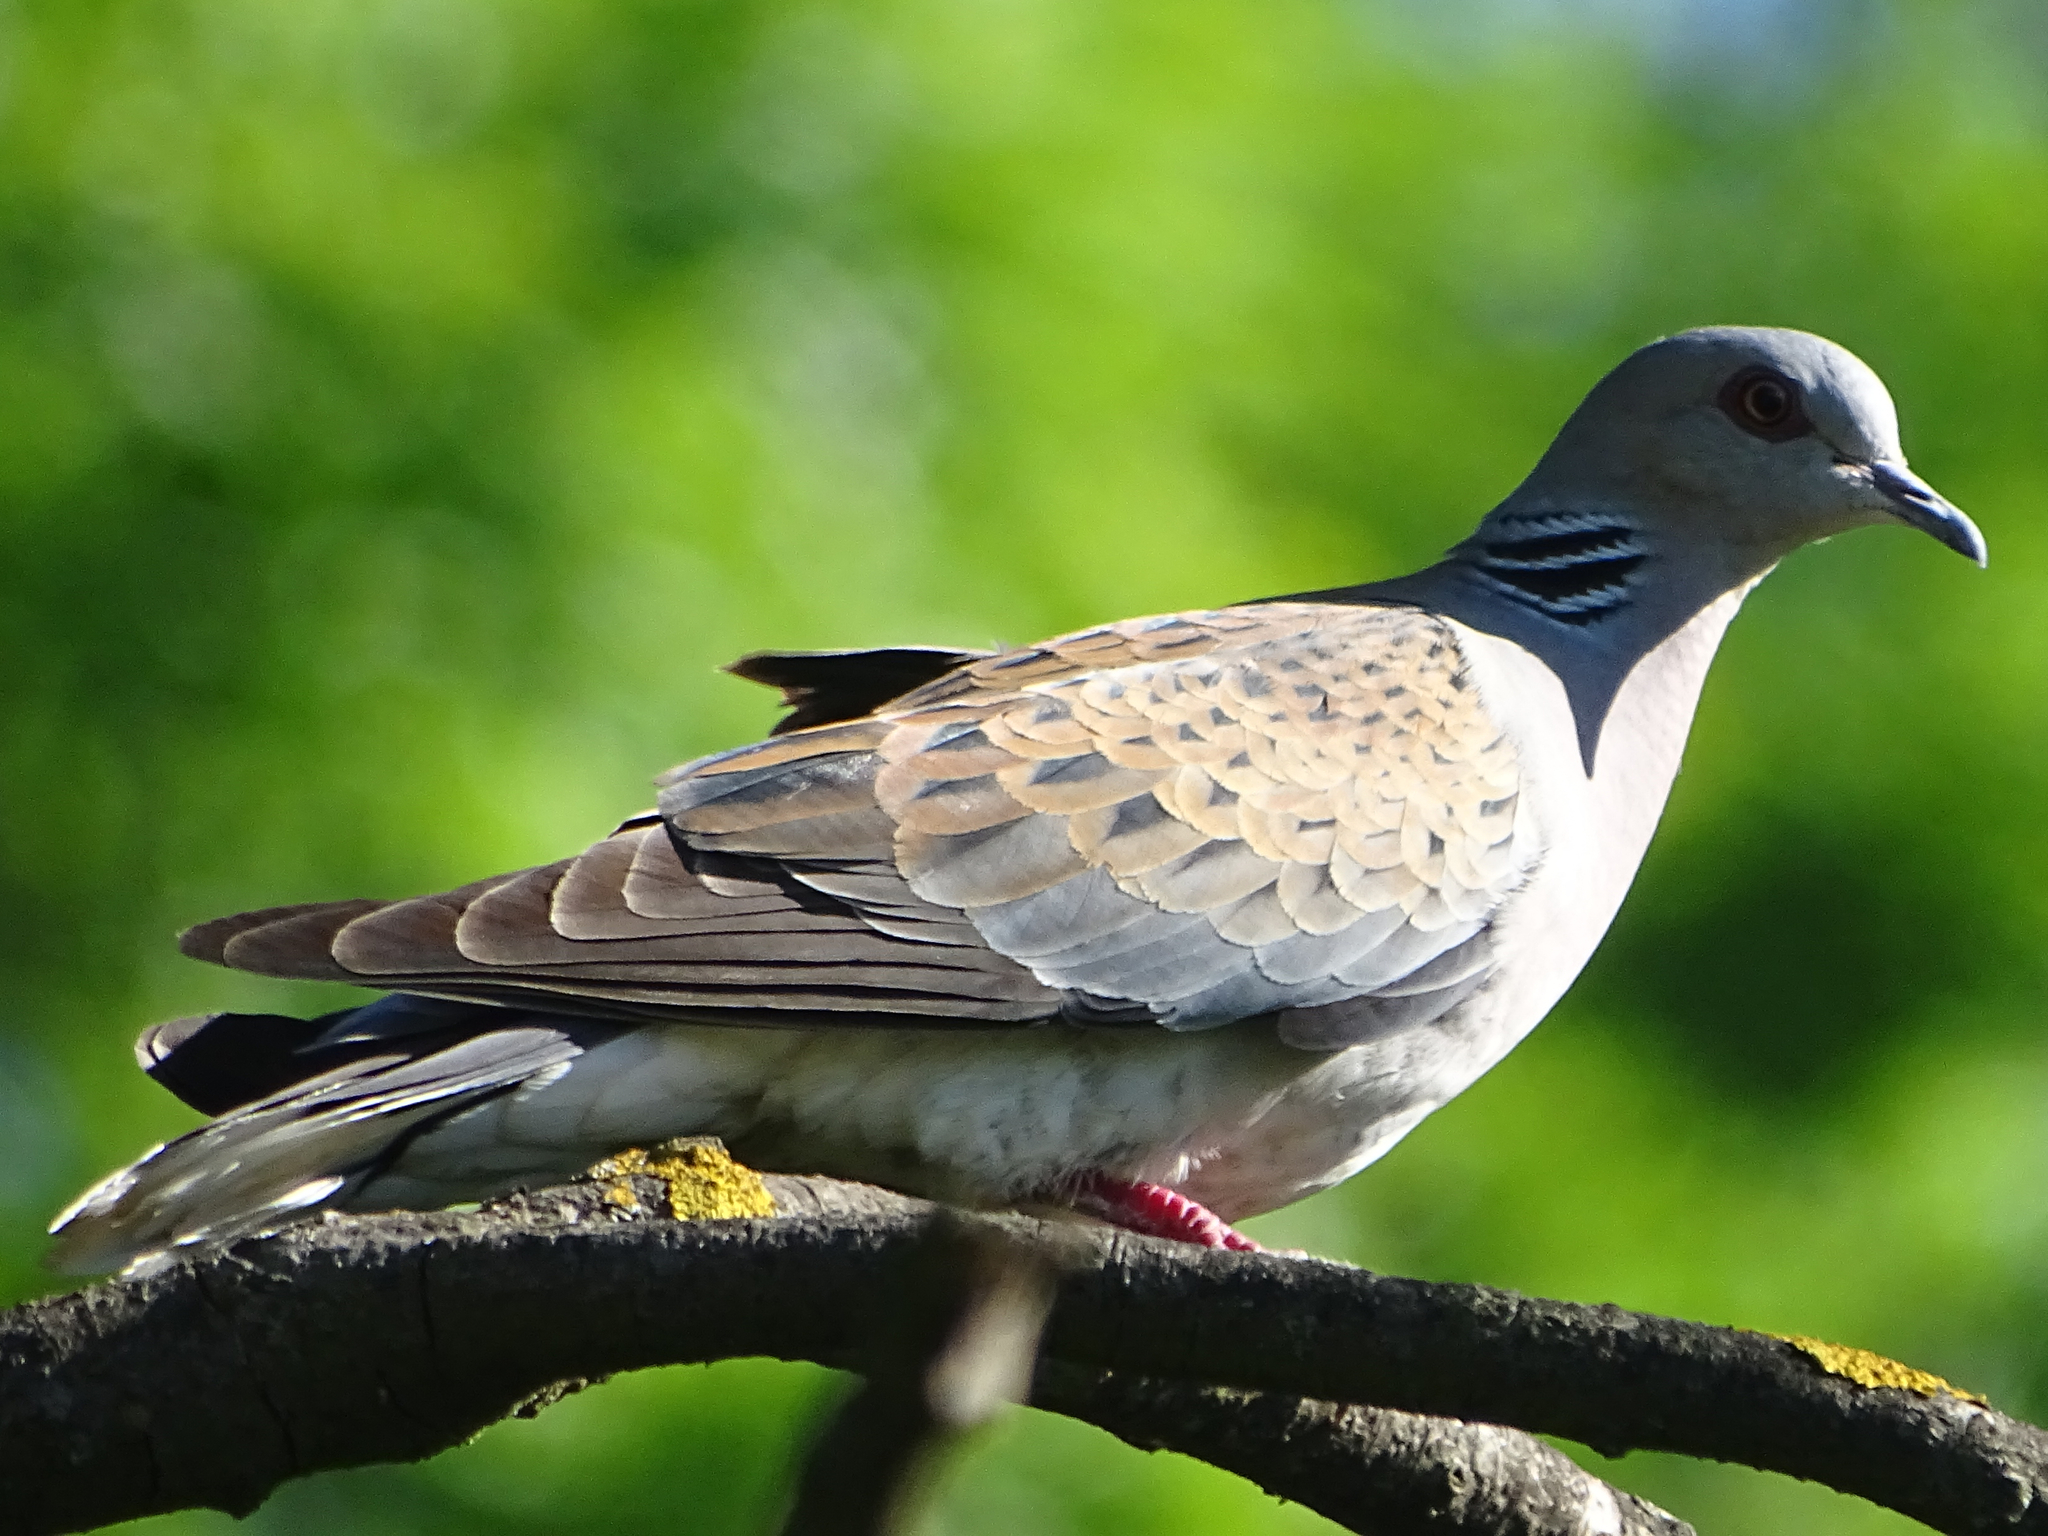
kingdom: Animalia
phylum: Chordata
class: Aves
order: Columbiformes
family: Columbidae
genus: Streptopelia
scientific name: Streptopelia turtur
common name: European turtle dove
